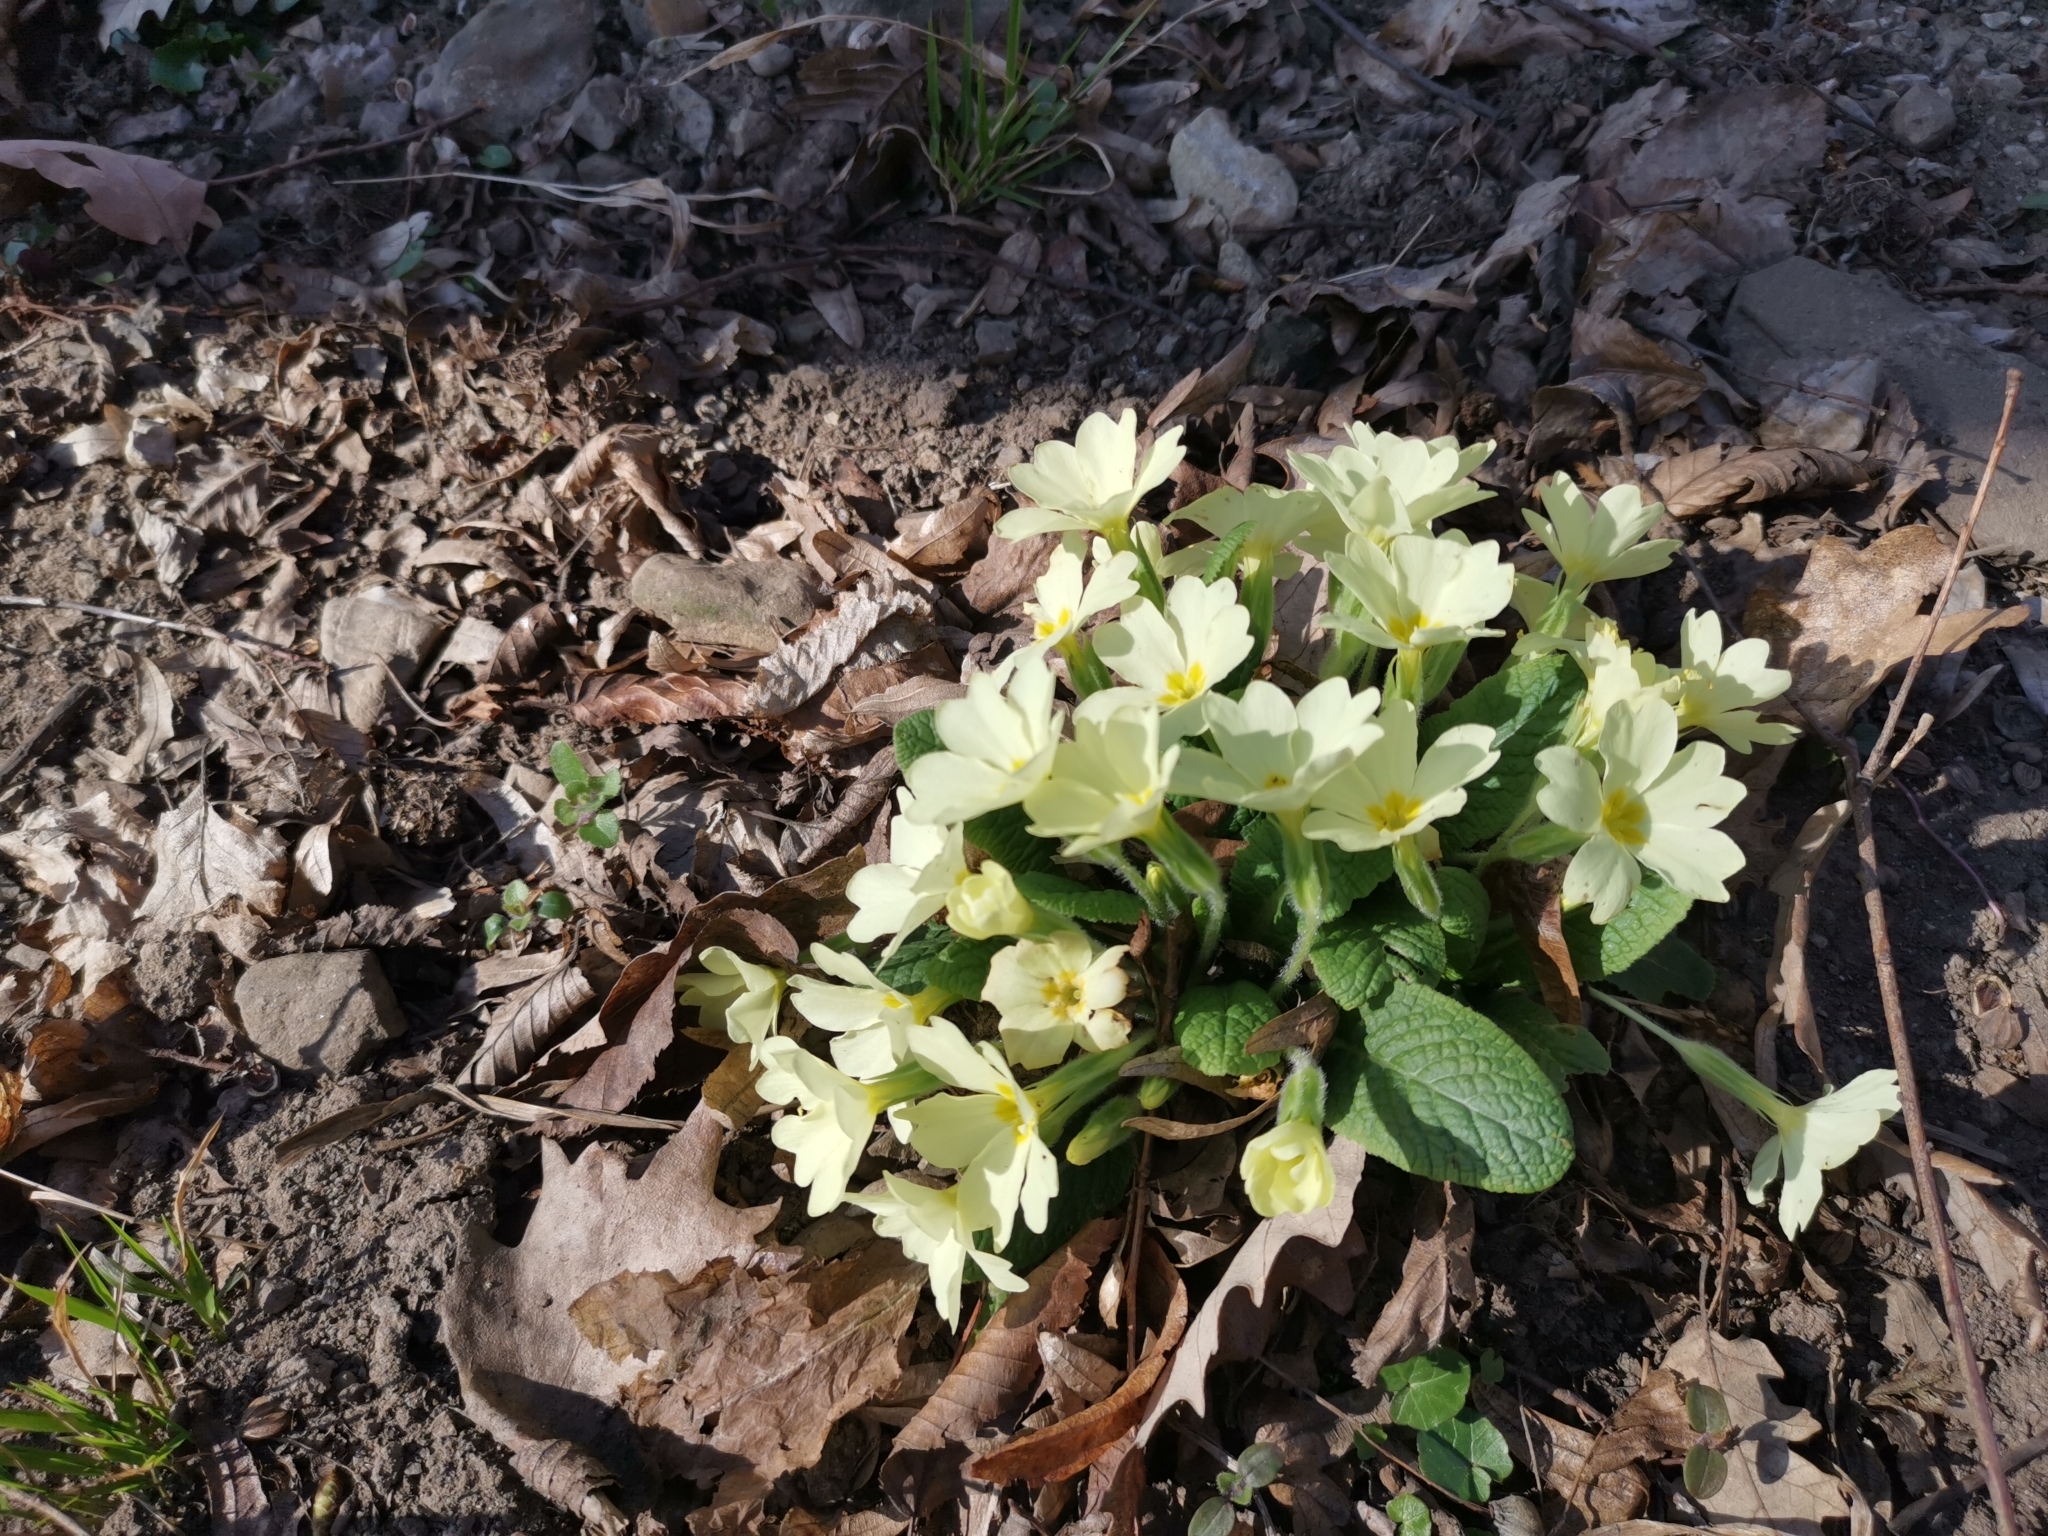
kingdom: Plantae
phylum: Tracheophyta
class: Magnoliopsida
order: Ericales
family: Primulaceae
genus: Primula
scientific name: Primula vulgaris
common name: Primrose
